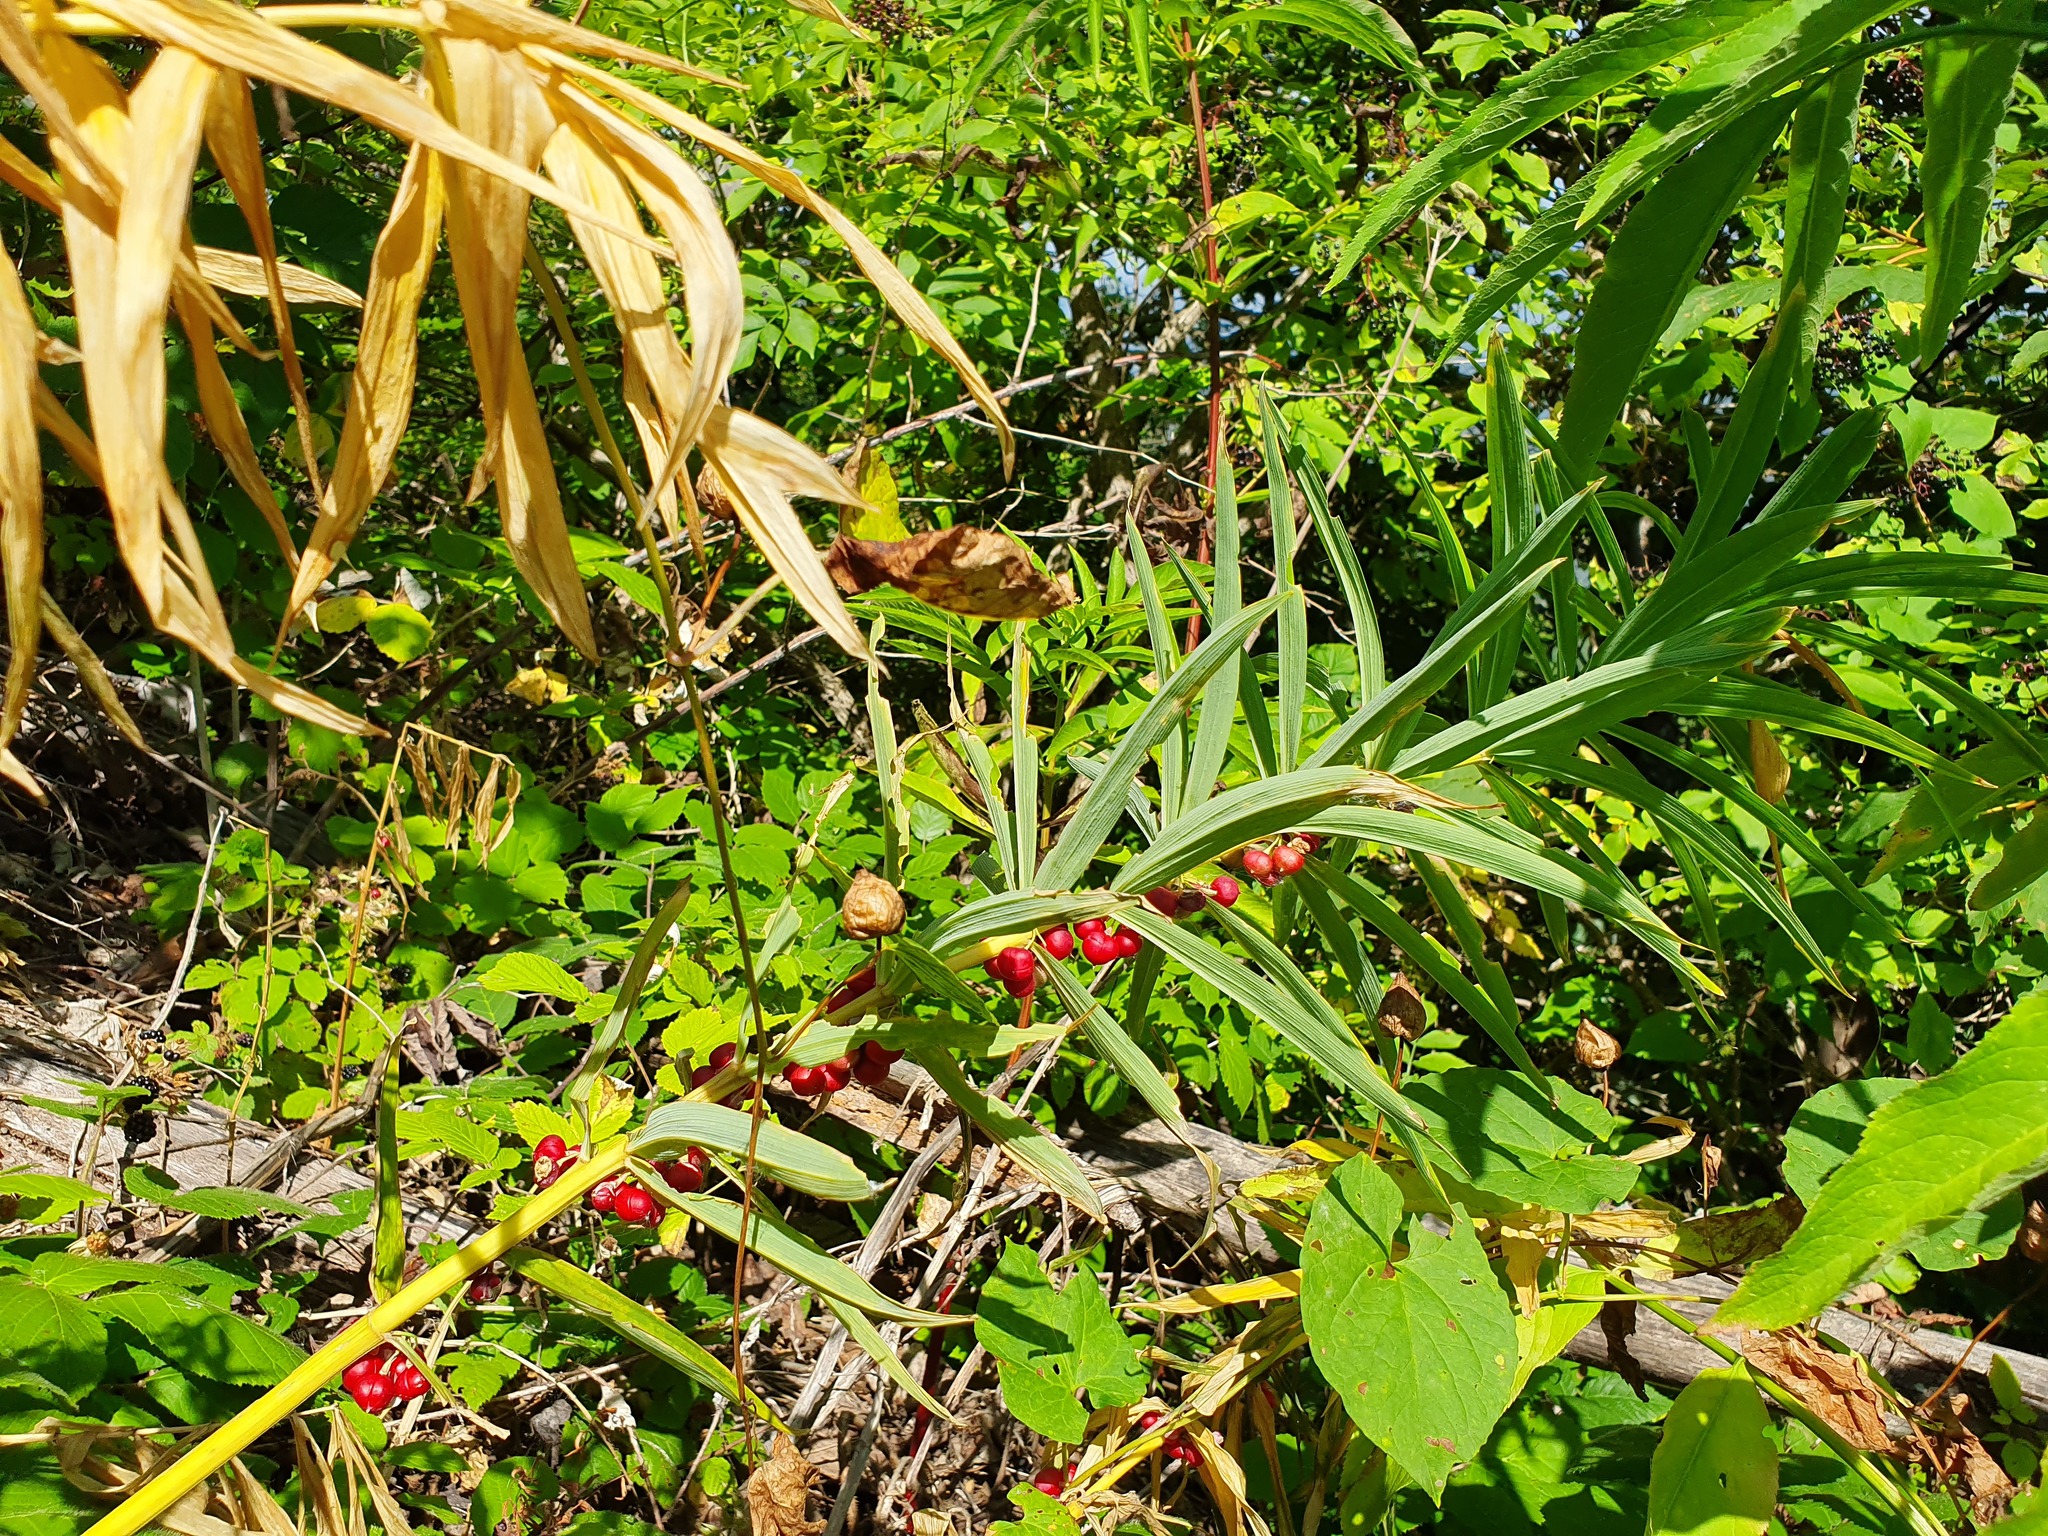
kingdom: Plantae
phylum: Tracheophyta
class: Liliopsida
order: Asparagales
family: Asparagaceae
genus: Polygonatum
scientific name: Polygonatum verticillatum
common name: Whorled solomon's-seal
